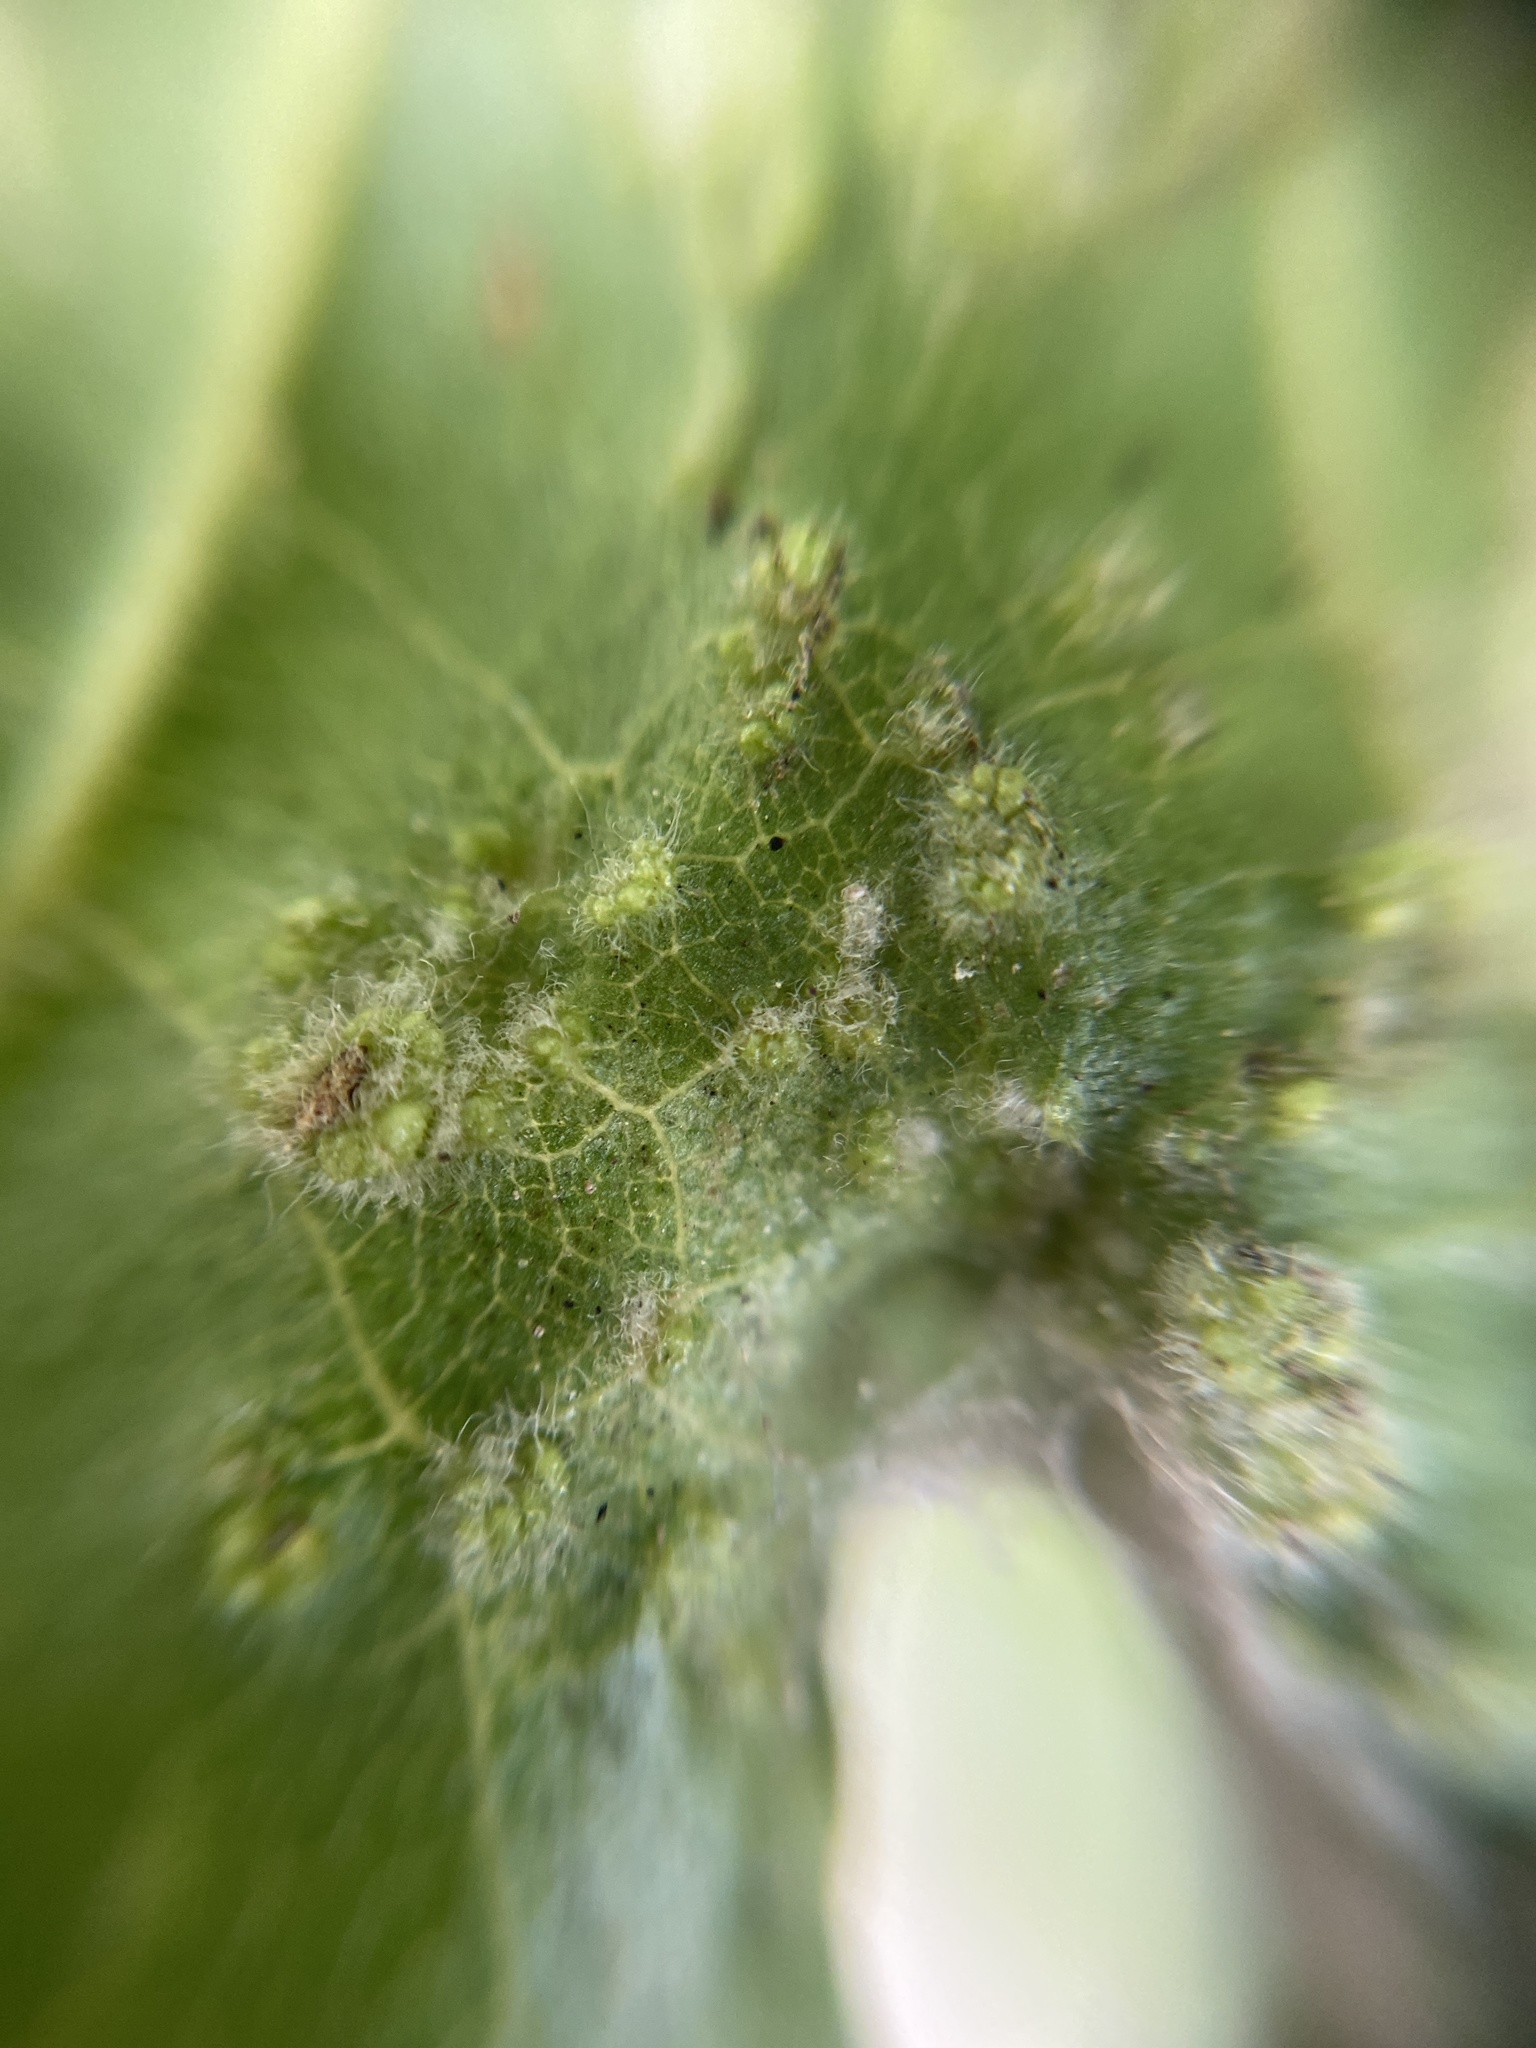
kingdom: Animalia
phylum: Arthropoda
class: Arachnida
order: Trombidiformes
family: Eriophyidae
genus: Aceria
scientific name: Aceria myriadeum
